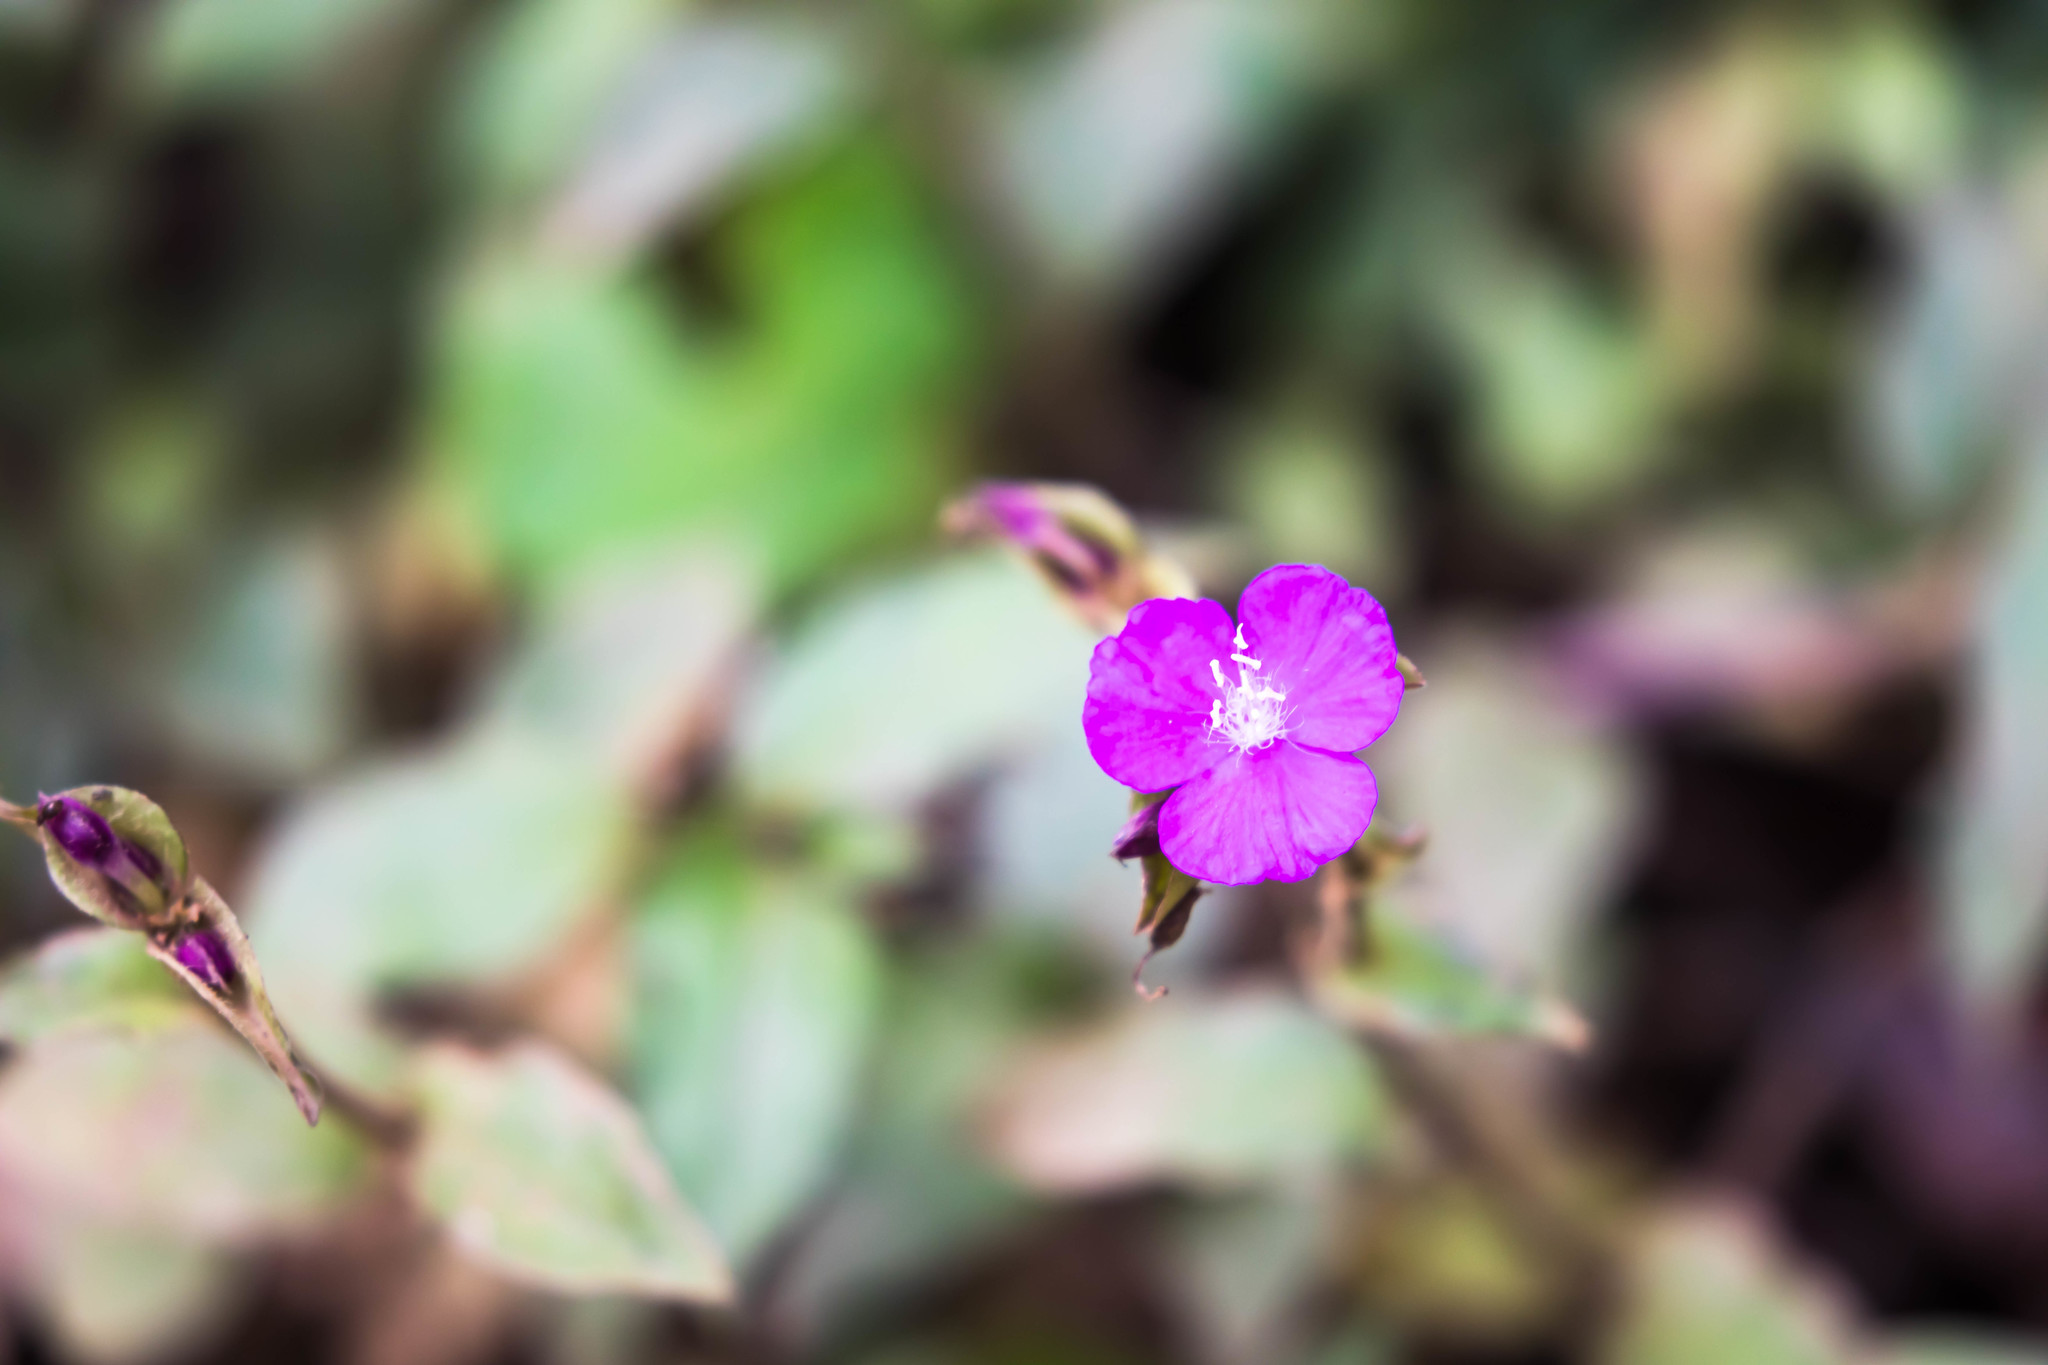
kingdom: Plantae
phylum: Tracheophyta
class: Liliopsida
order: Commelinales
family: Commelinaceae
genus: Tradescantia
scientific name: Tradescantia poelliae
